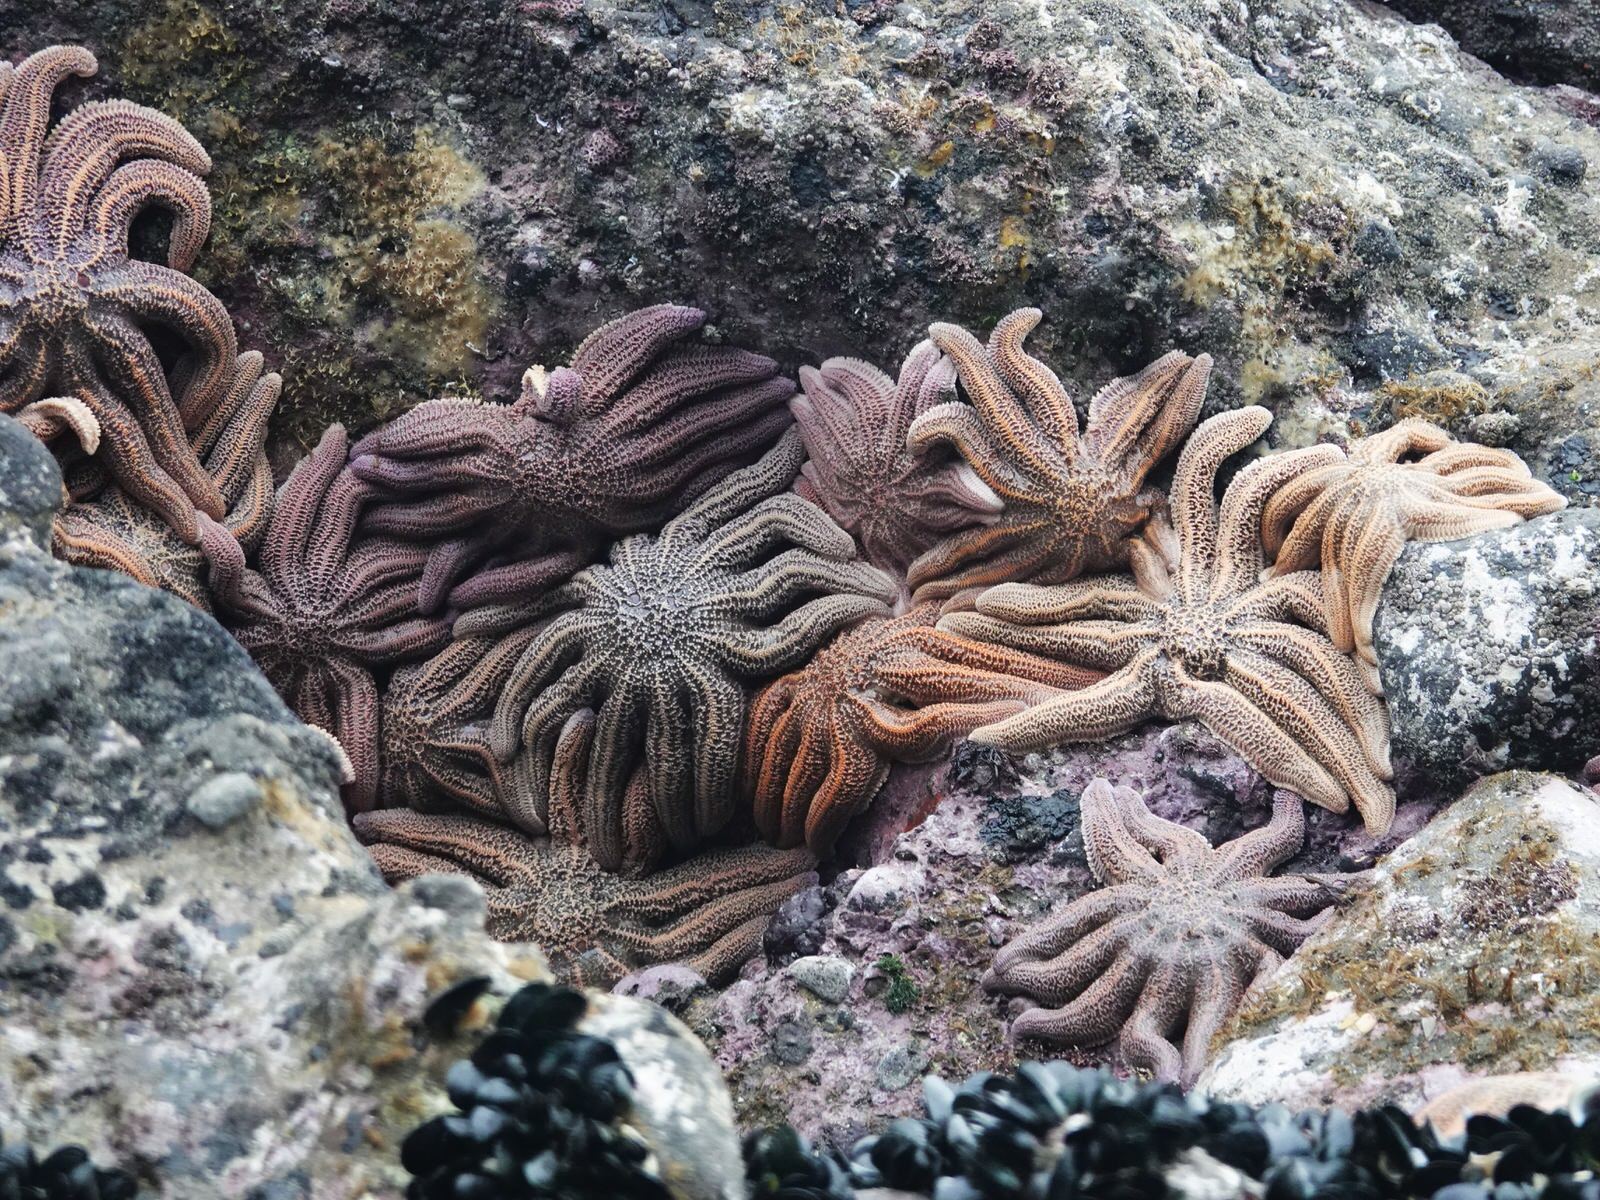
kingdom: Animalia
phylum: Echinodermata
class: Asteroidea
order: Forcipulatida
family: Stichasteridae
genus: Stichaster
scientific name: Stichaster australis
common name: Reef starfish
